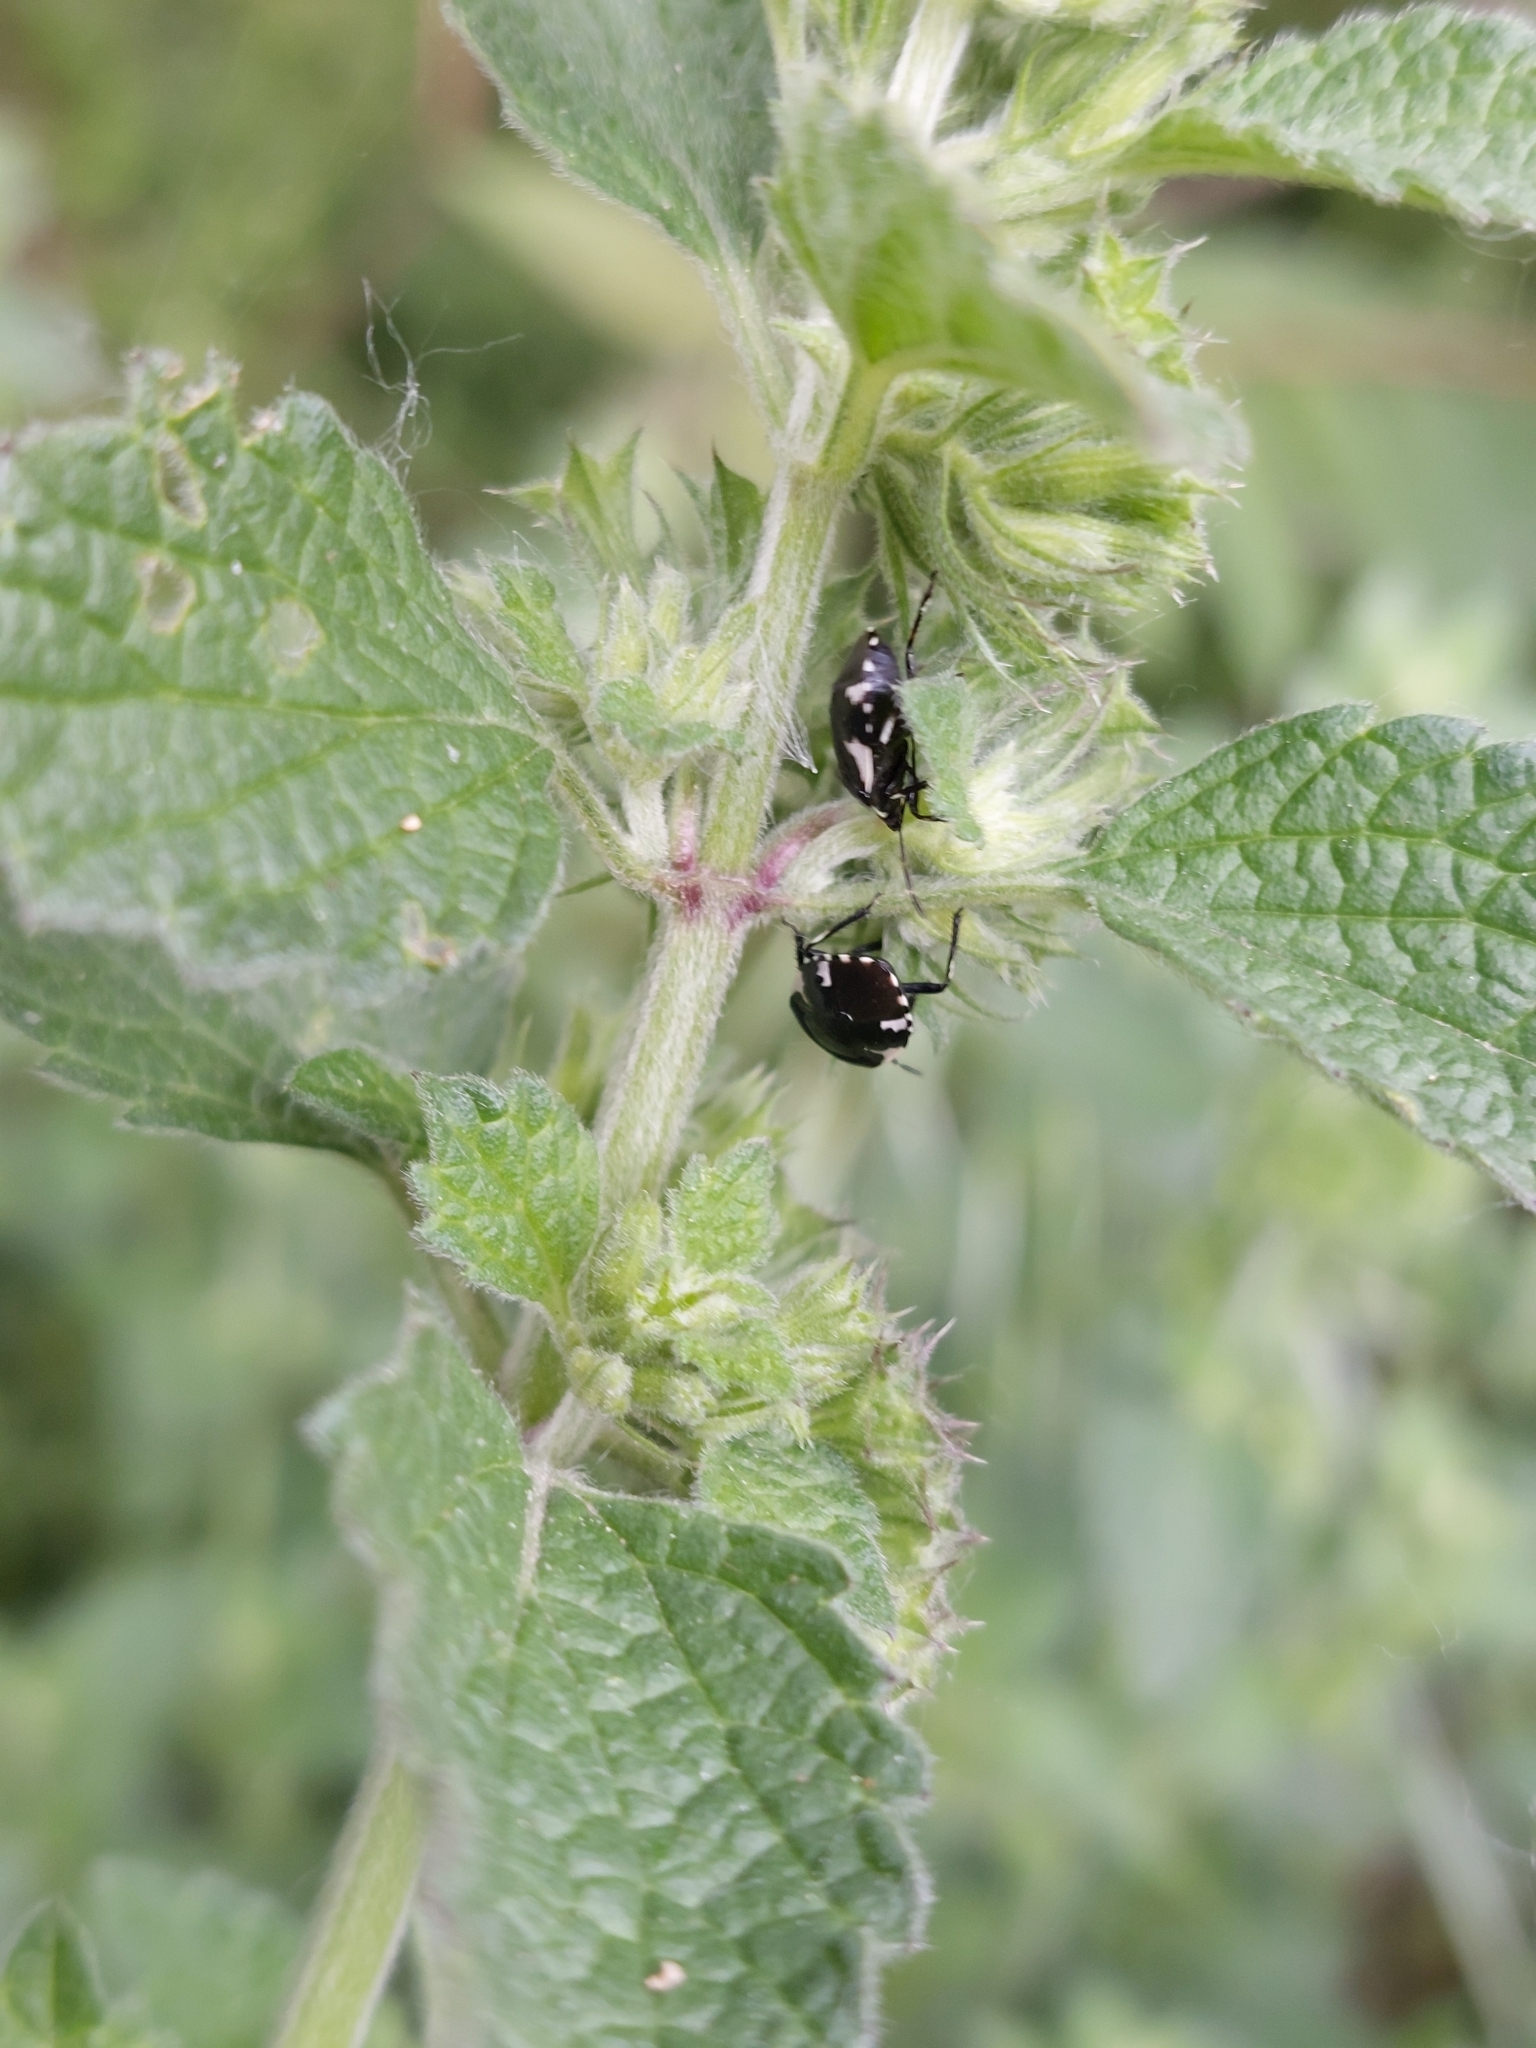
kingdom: Animalia
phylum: Arthropoda
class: Insecta
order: Hemiptera
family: Cydnidae
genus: Tritomegas
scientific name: Tritomegas sexmaculatus
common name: Rambur's pied shieldbug
